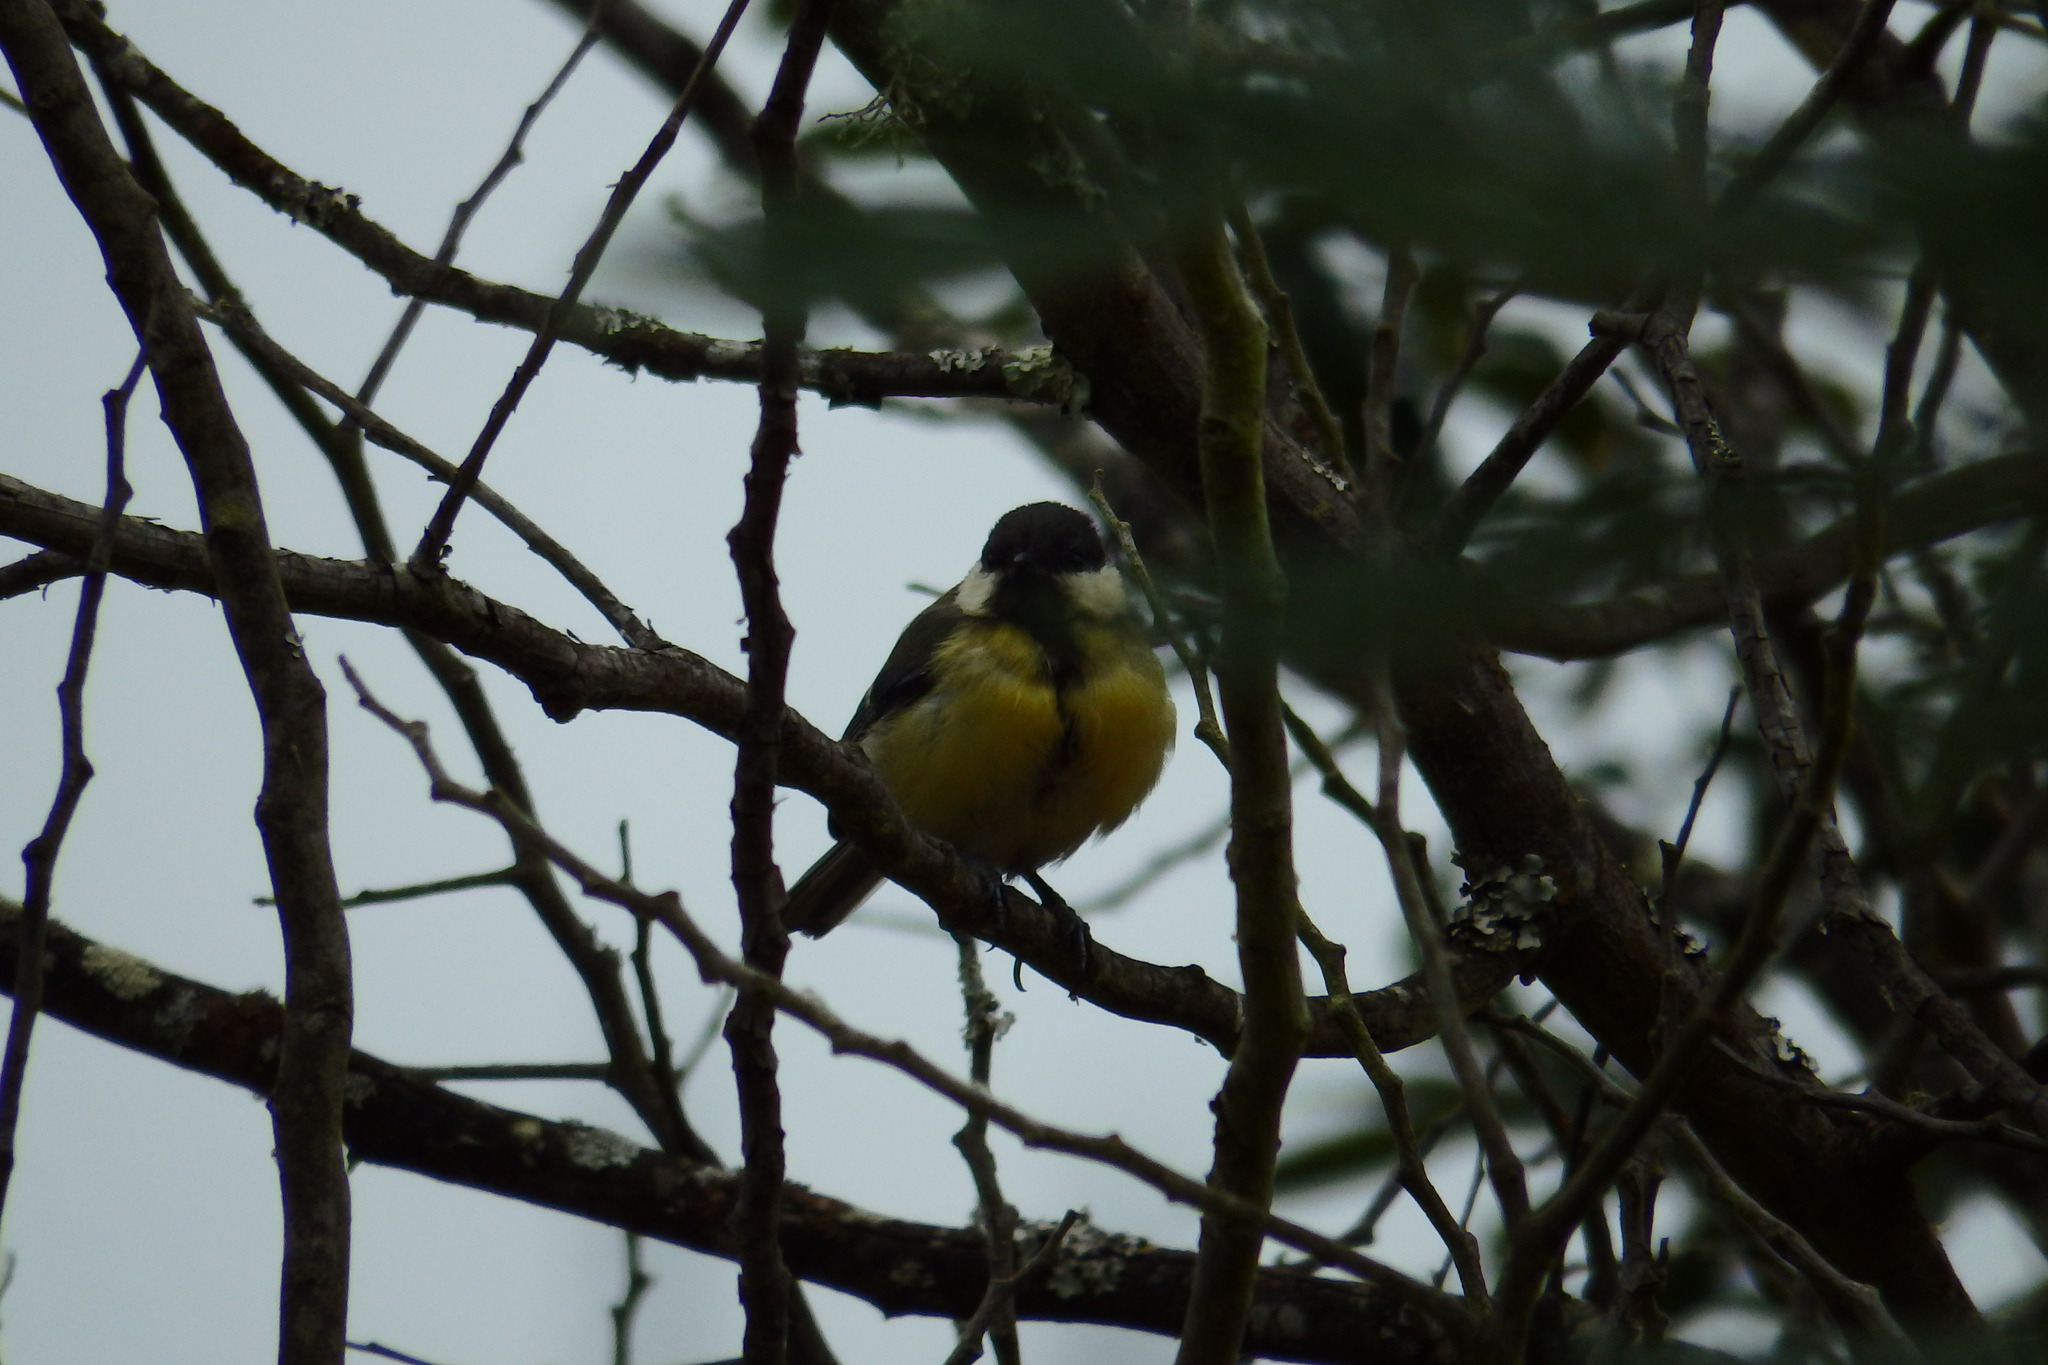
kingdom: Animalia
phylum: Chordata
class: Aves
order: Passeriformes
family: Paridae
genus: Parus
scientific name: Parus major
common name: Great tit
